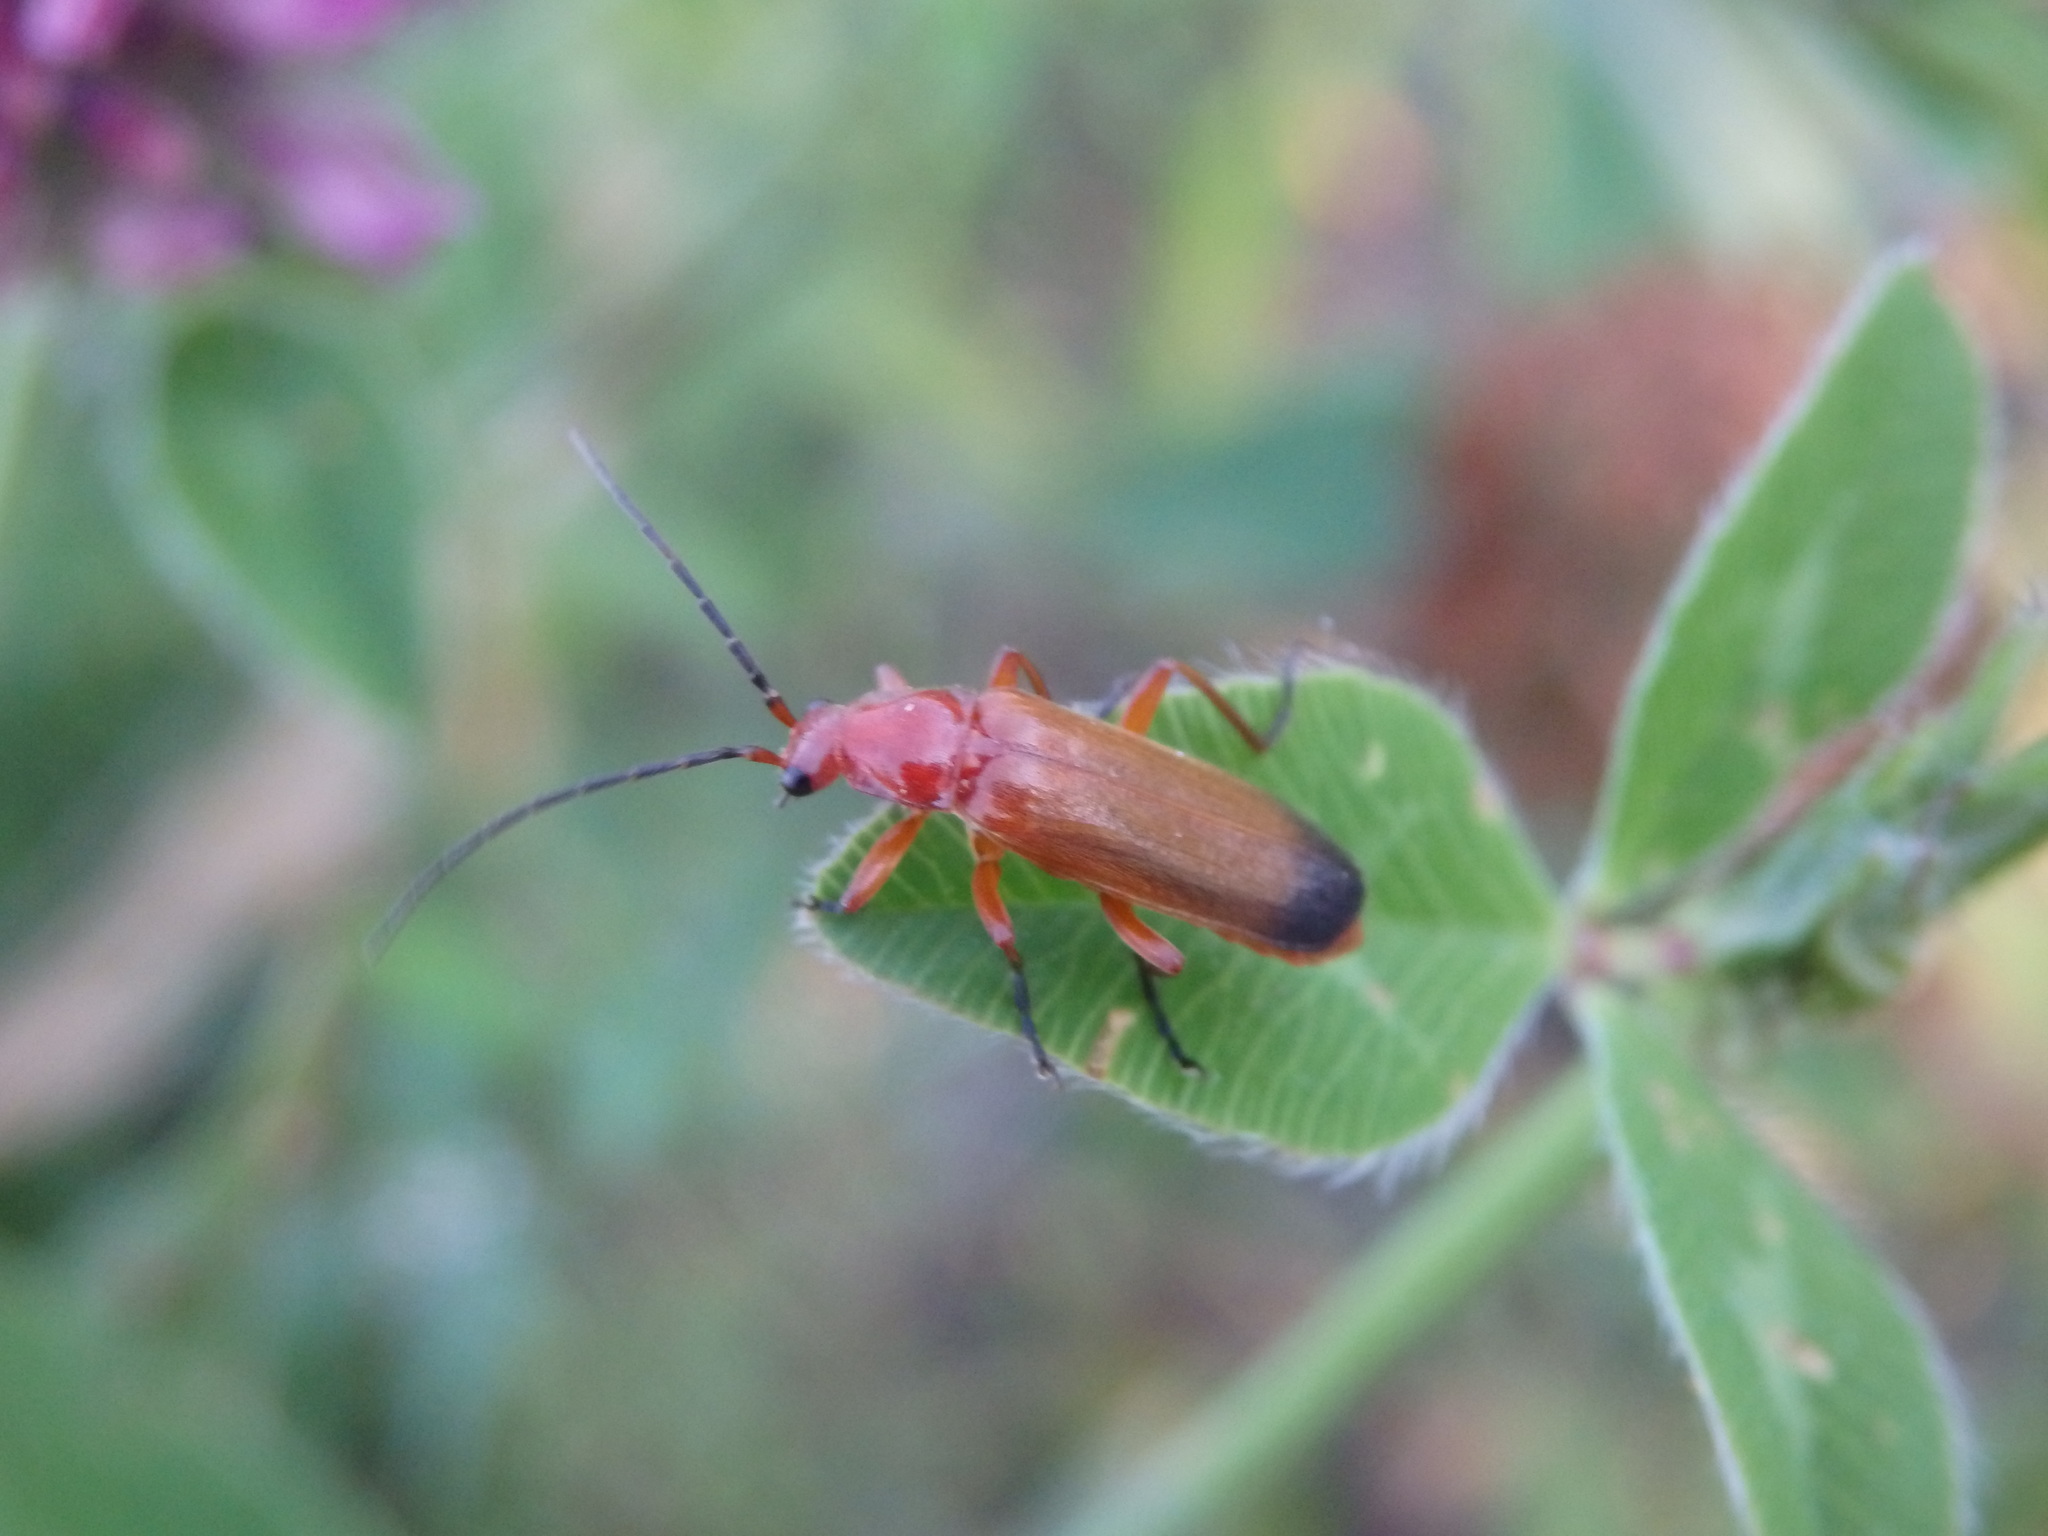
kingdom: Animalia
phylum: Arthropoda
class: Insecta
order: Coleoptera
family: Cantharidae
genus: Rhagonycha
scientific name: Rhagonycha fulva
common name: Common red soldier beetle
